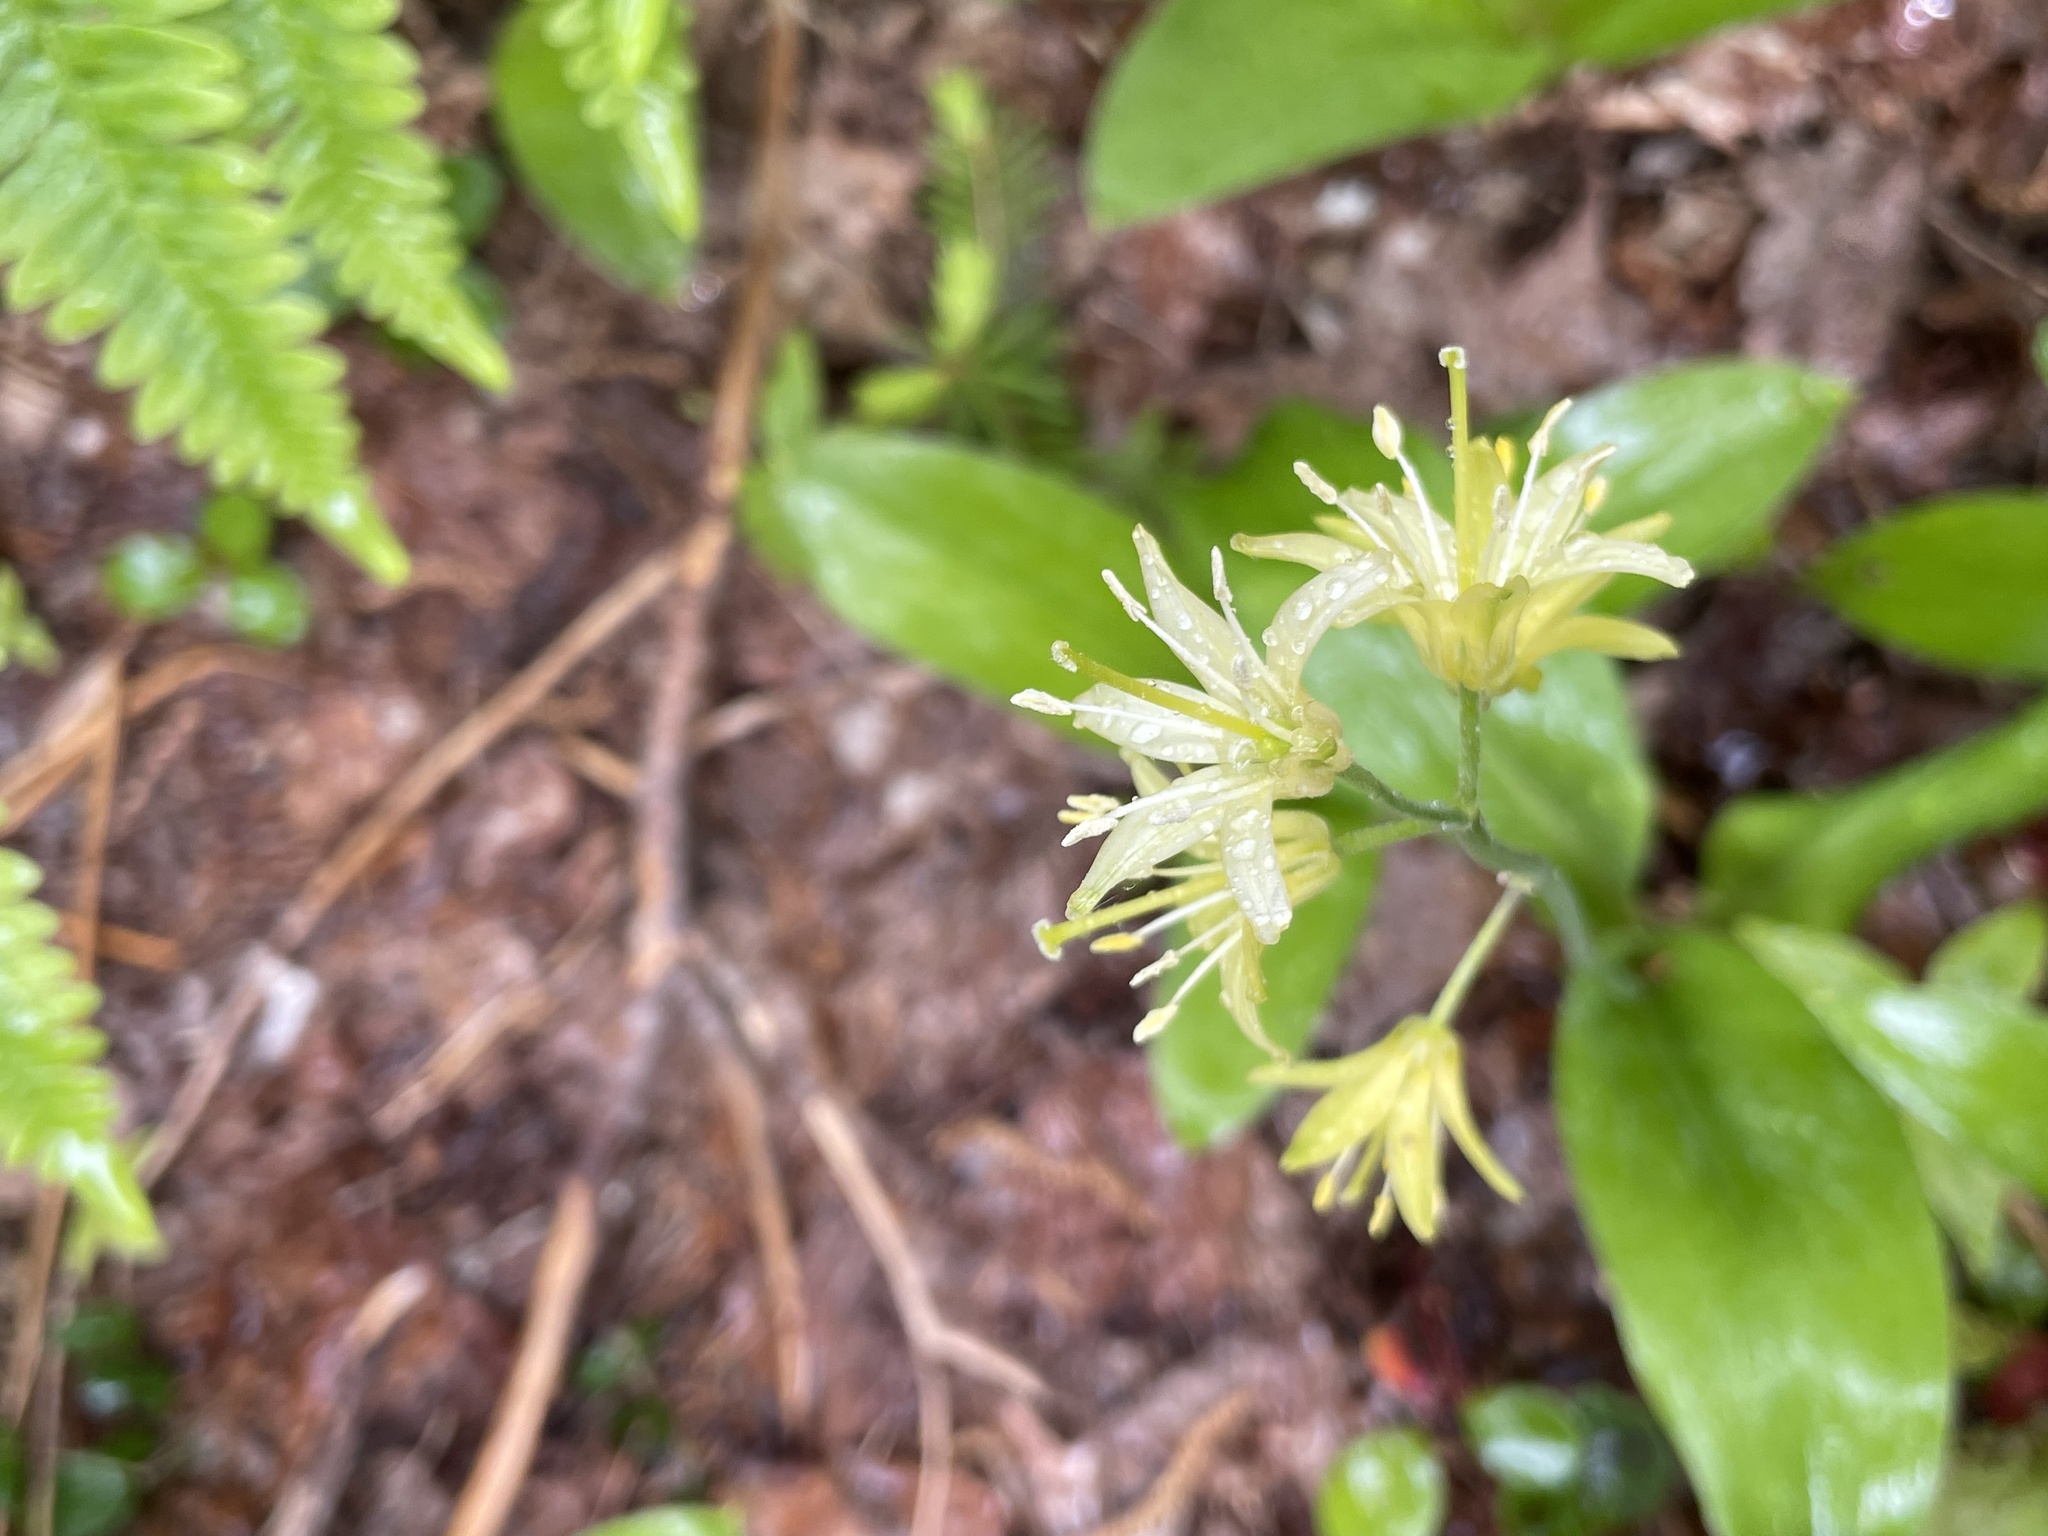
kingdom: Plantae
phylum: Tracheophyta
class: Liliopsida
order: Liliales
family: Liliaceae
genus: Clintonia
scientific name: Clintonia borealis
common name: Yellow clintonia
